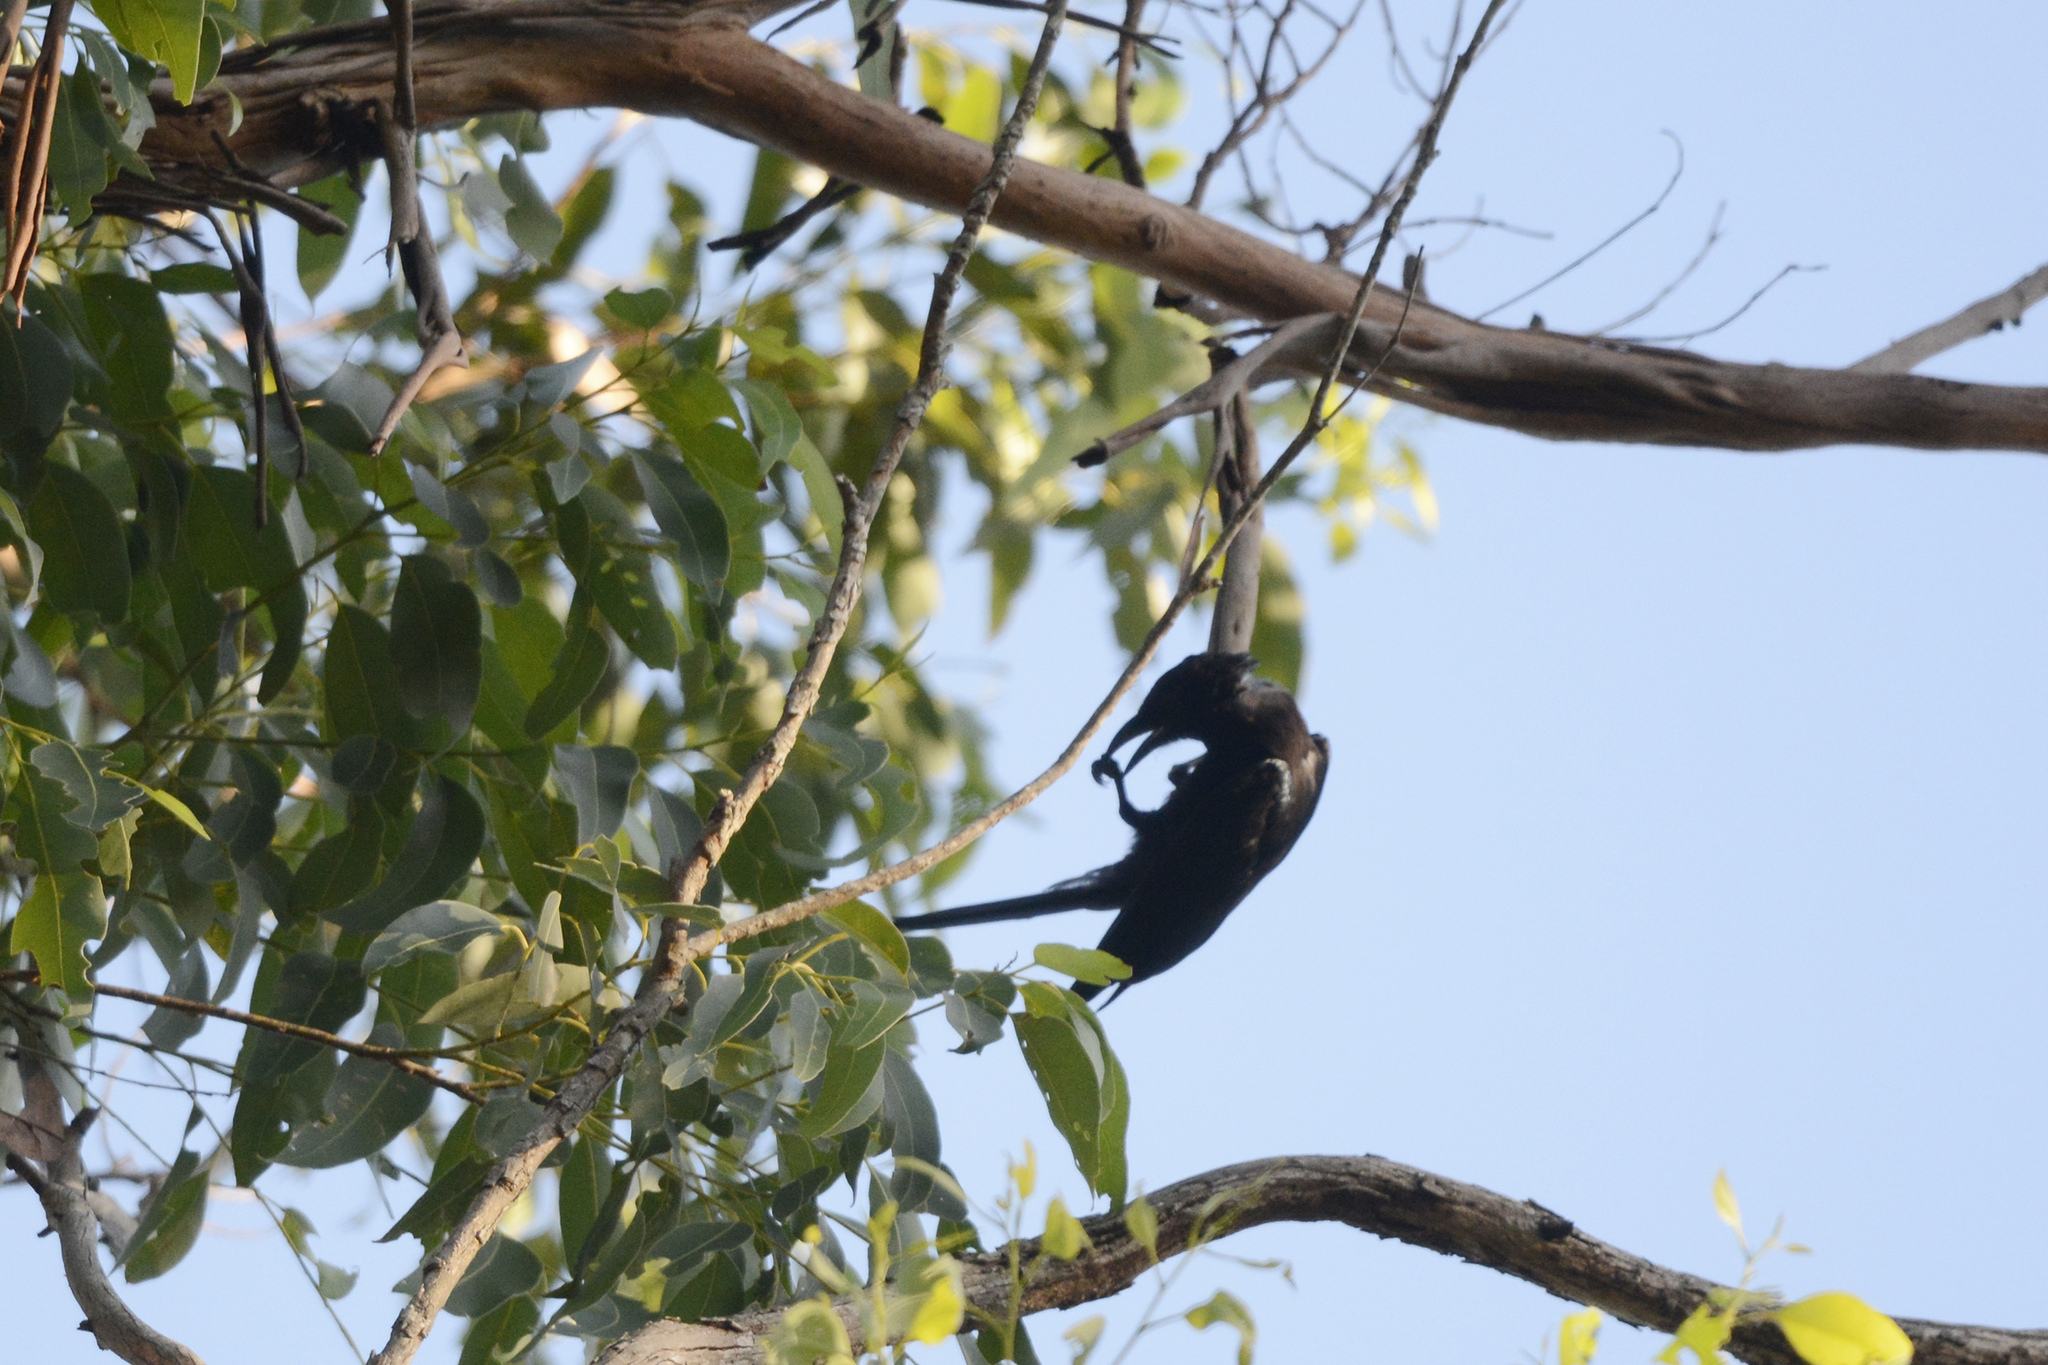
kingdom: Animalia
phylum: Chordata
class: Aves
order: Passeriformes
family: Dicruridae
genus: Dicrurus
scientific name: Dicrurus bracteatus
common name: Spangled drongo
